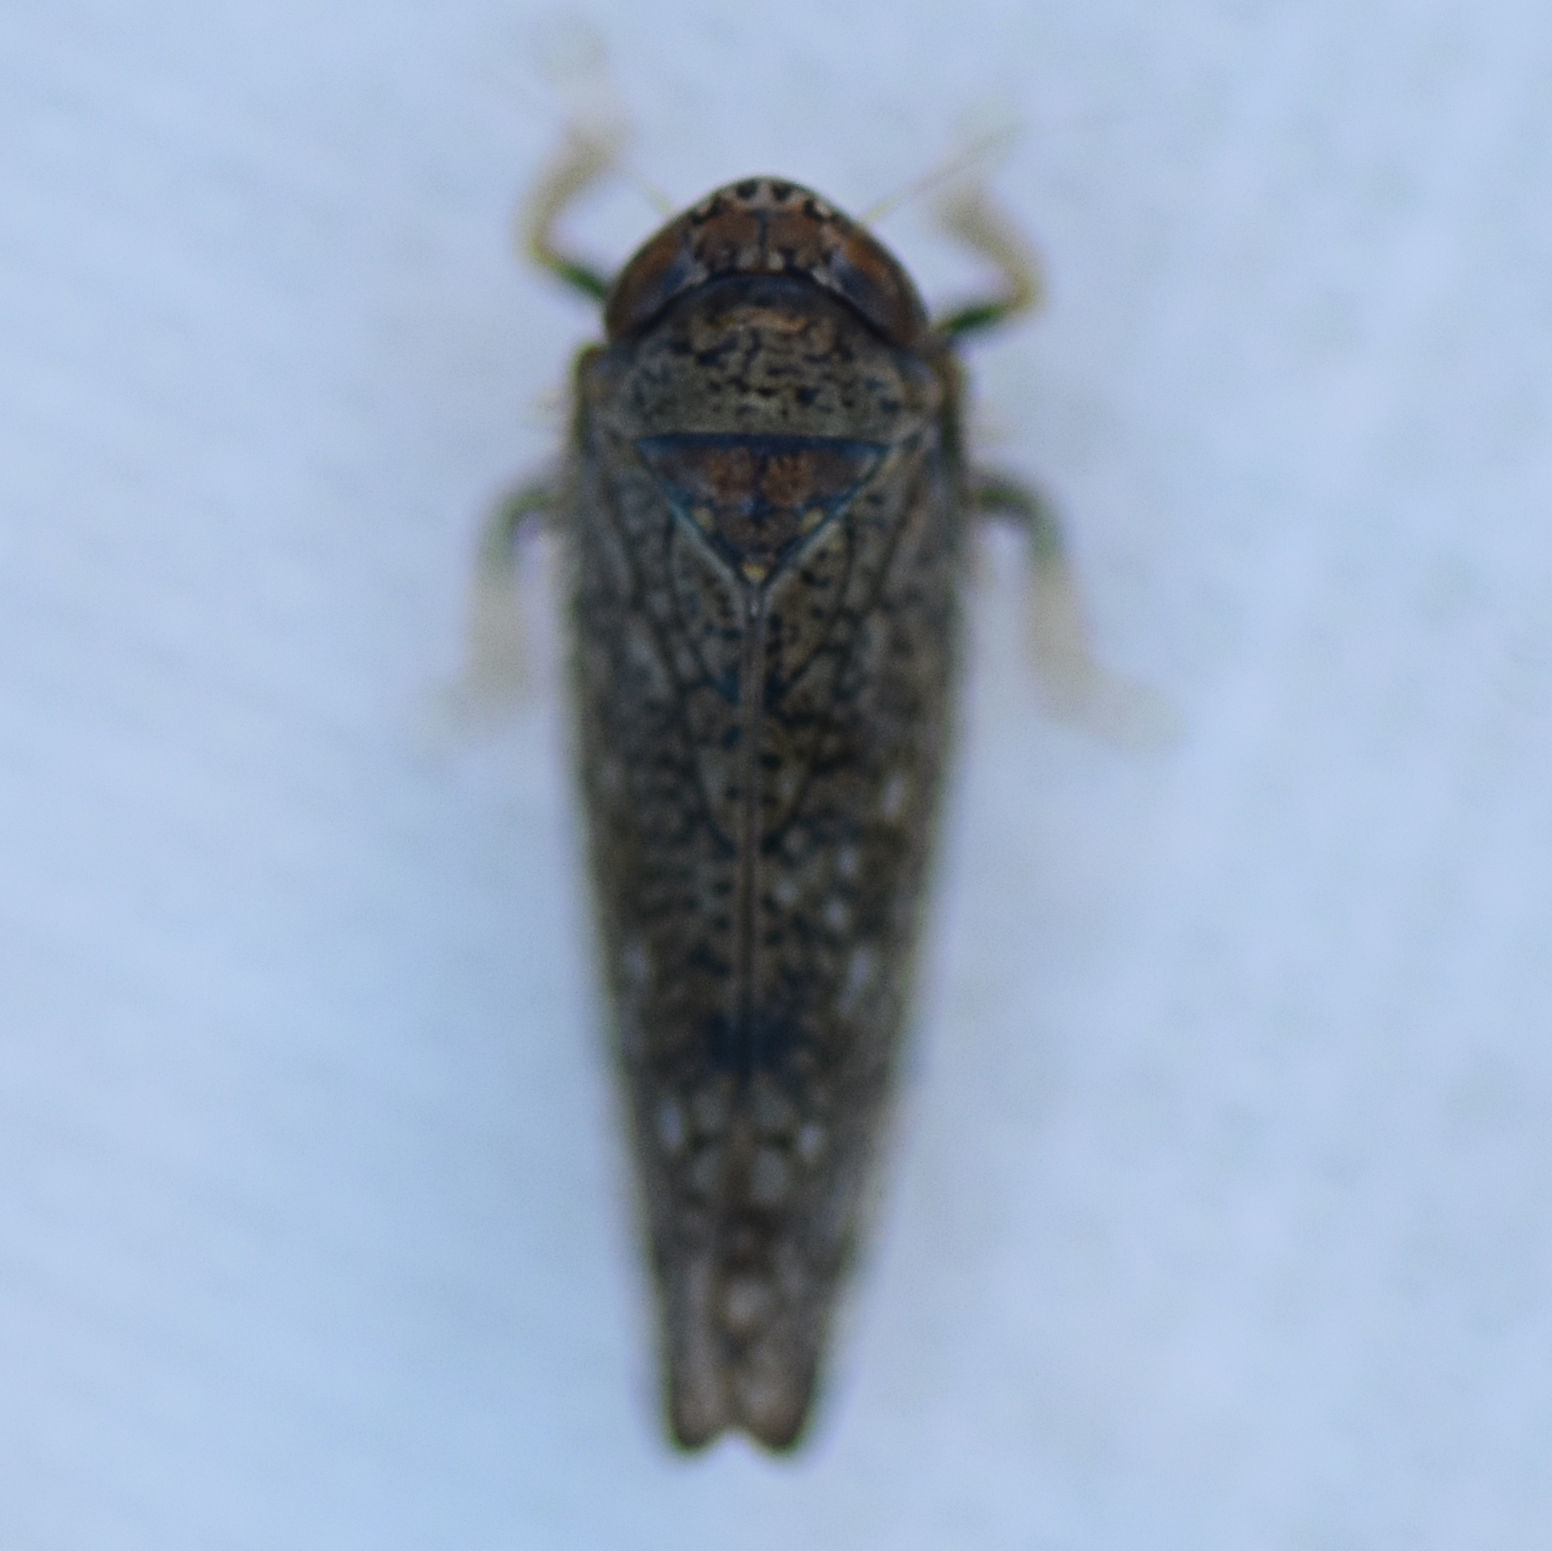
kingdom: Animalia
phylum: Arthropoda
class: Insecta
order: Hemiptera
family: Cicadellidae
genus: Orientus
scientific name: Orientus ishidae
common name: Japanese leafhopper
